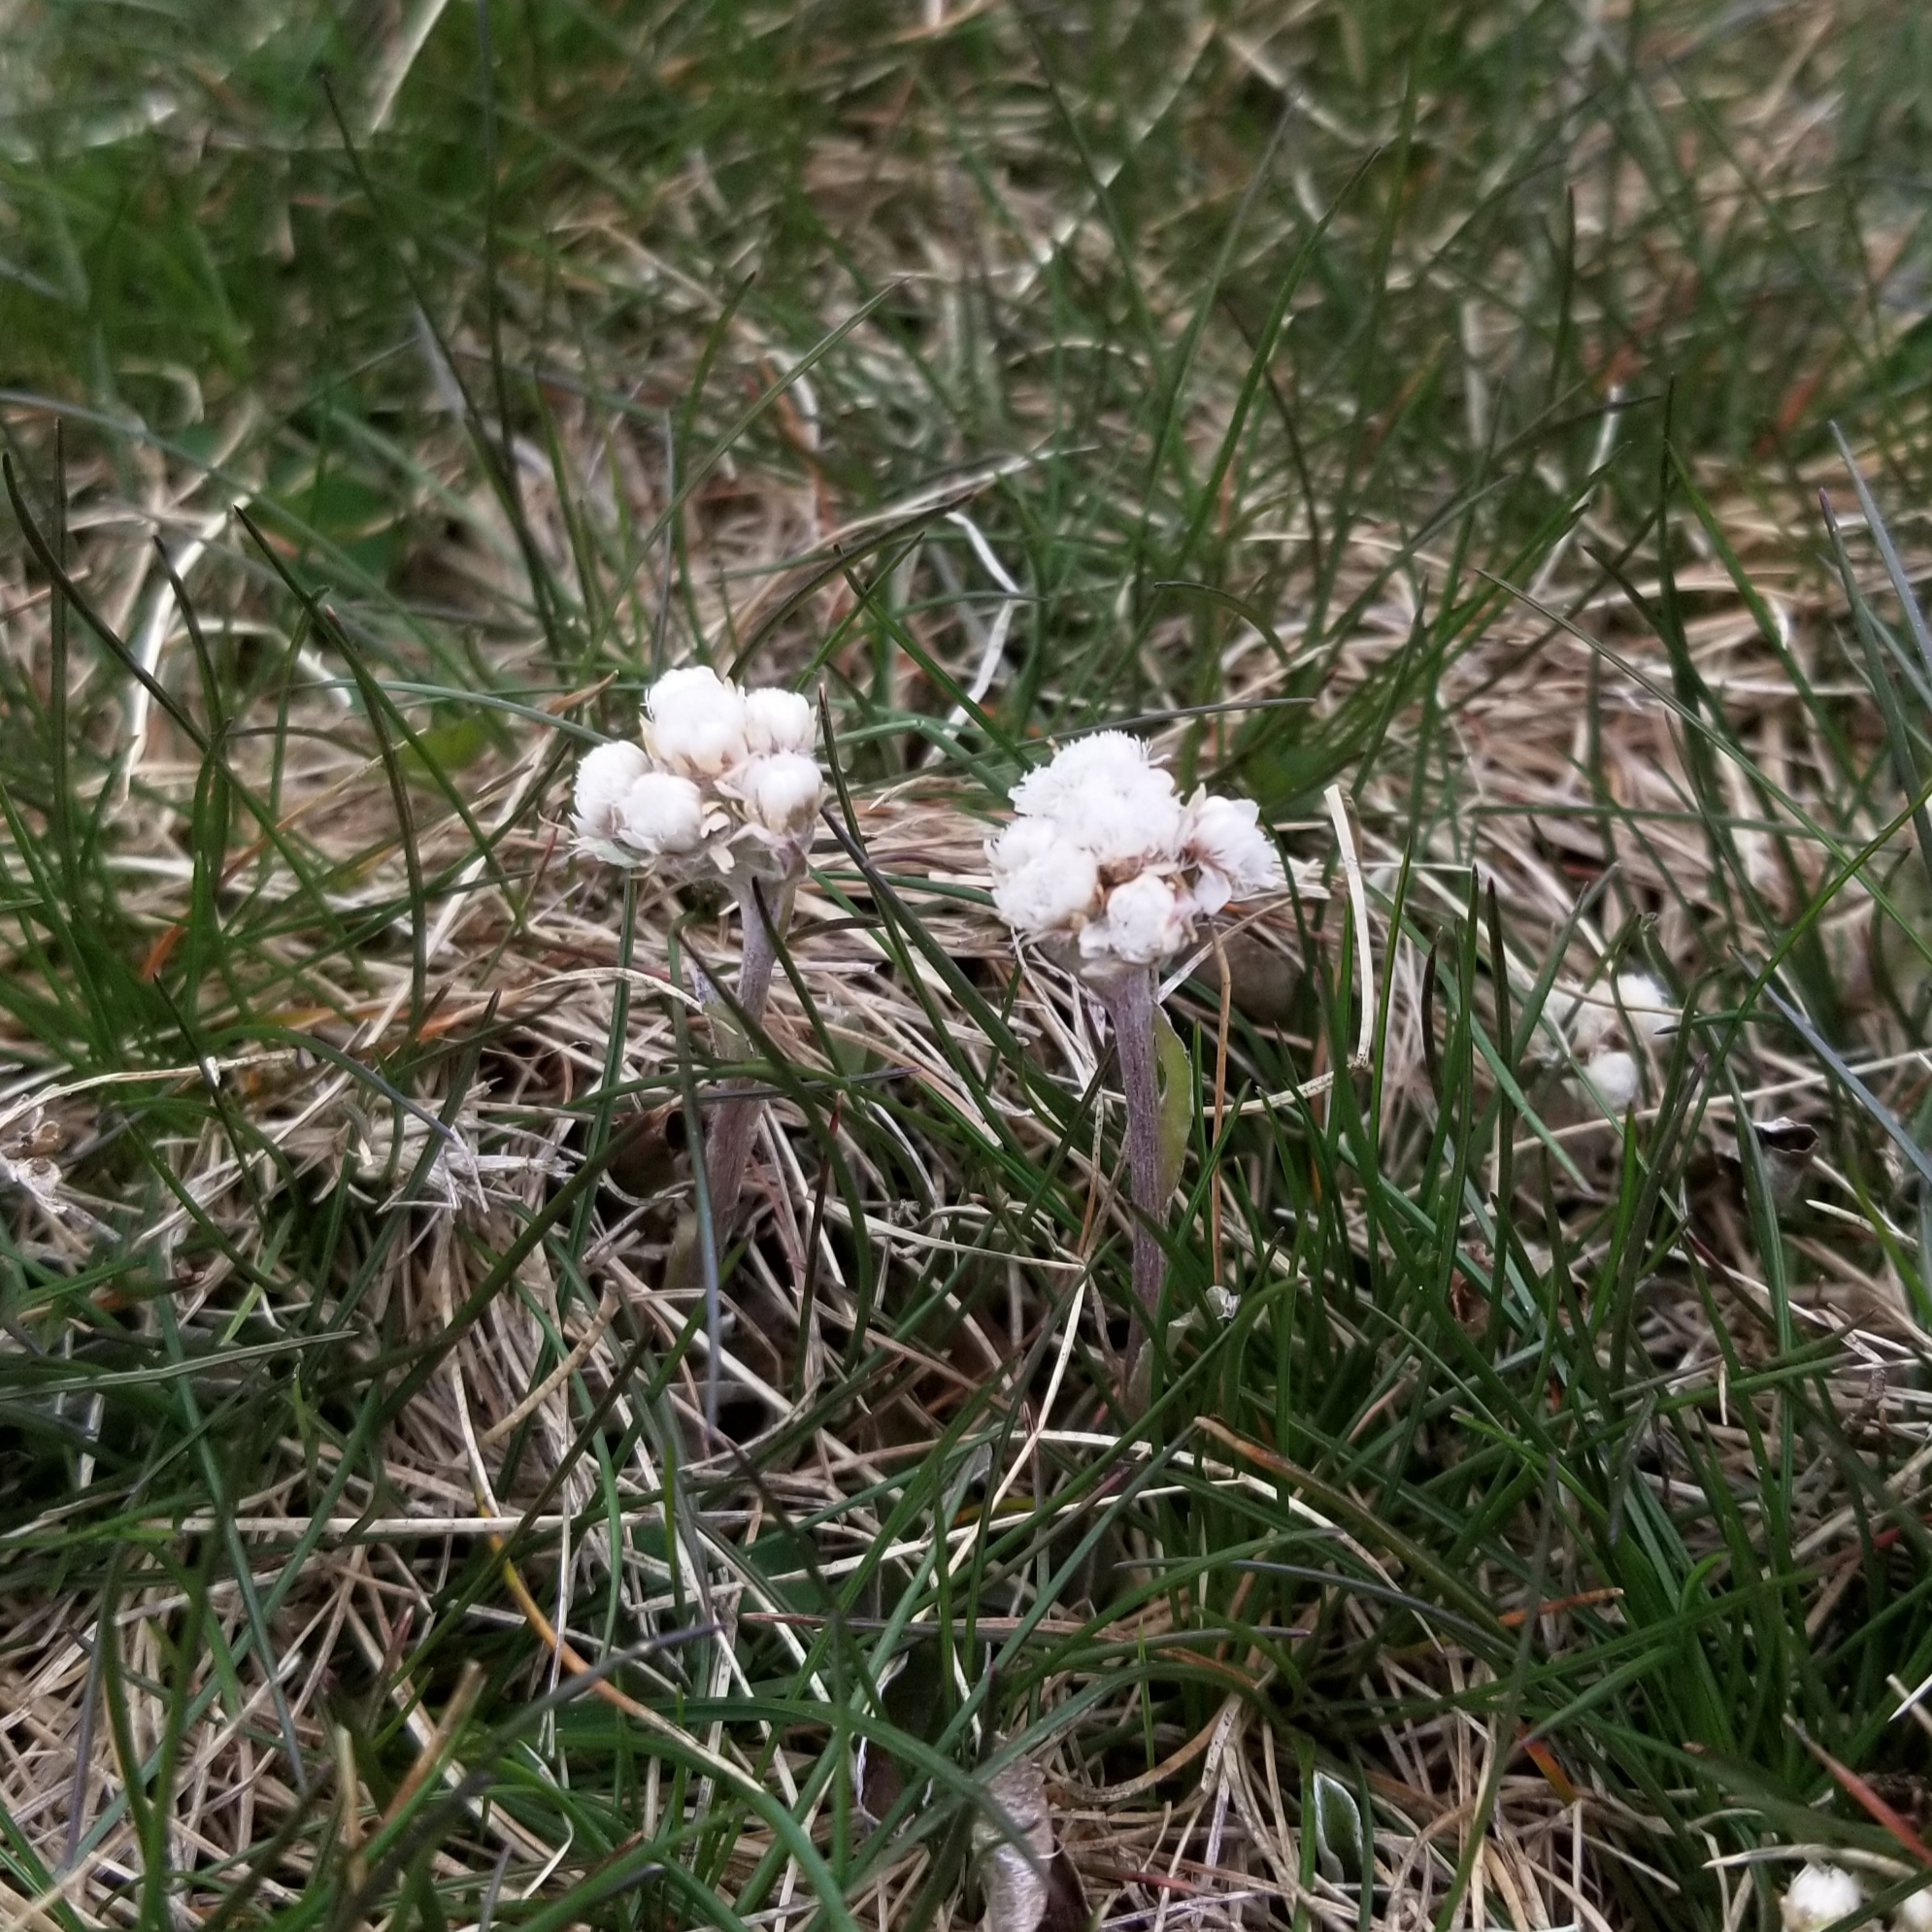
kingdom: Plantae
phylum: Tracheophyta
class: Magnoliopsida
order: Asterales
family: Asteraceae
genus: Antennaria
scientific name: Antennaria neglecta
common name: Field pussytoes
